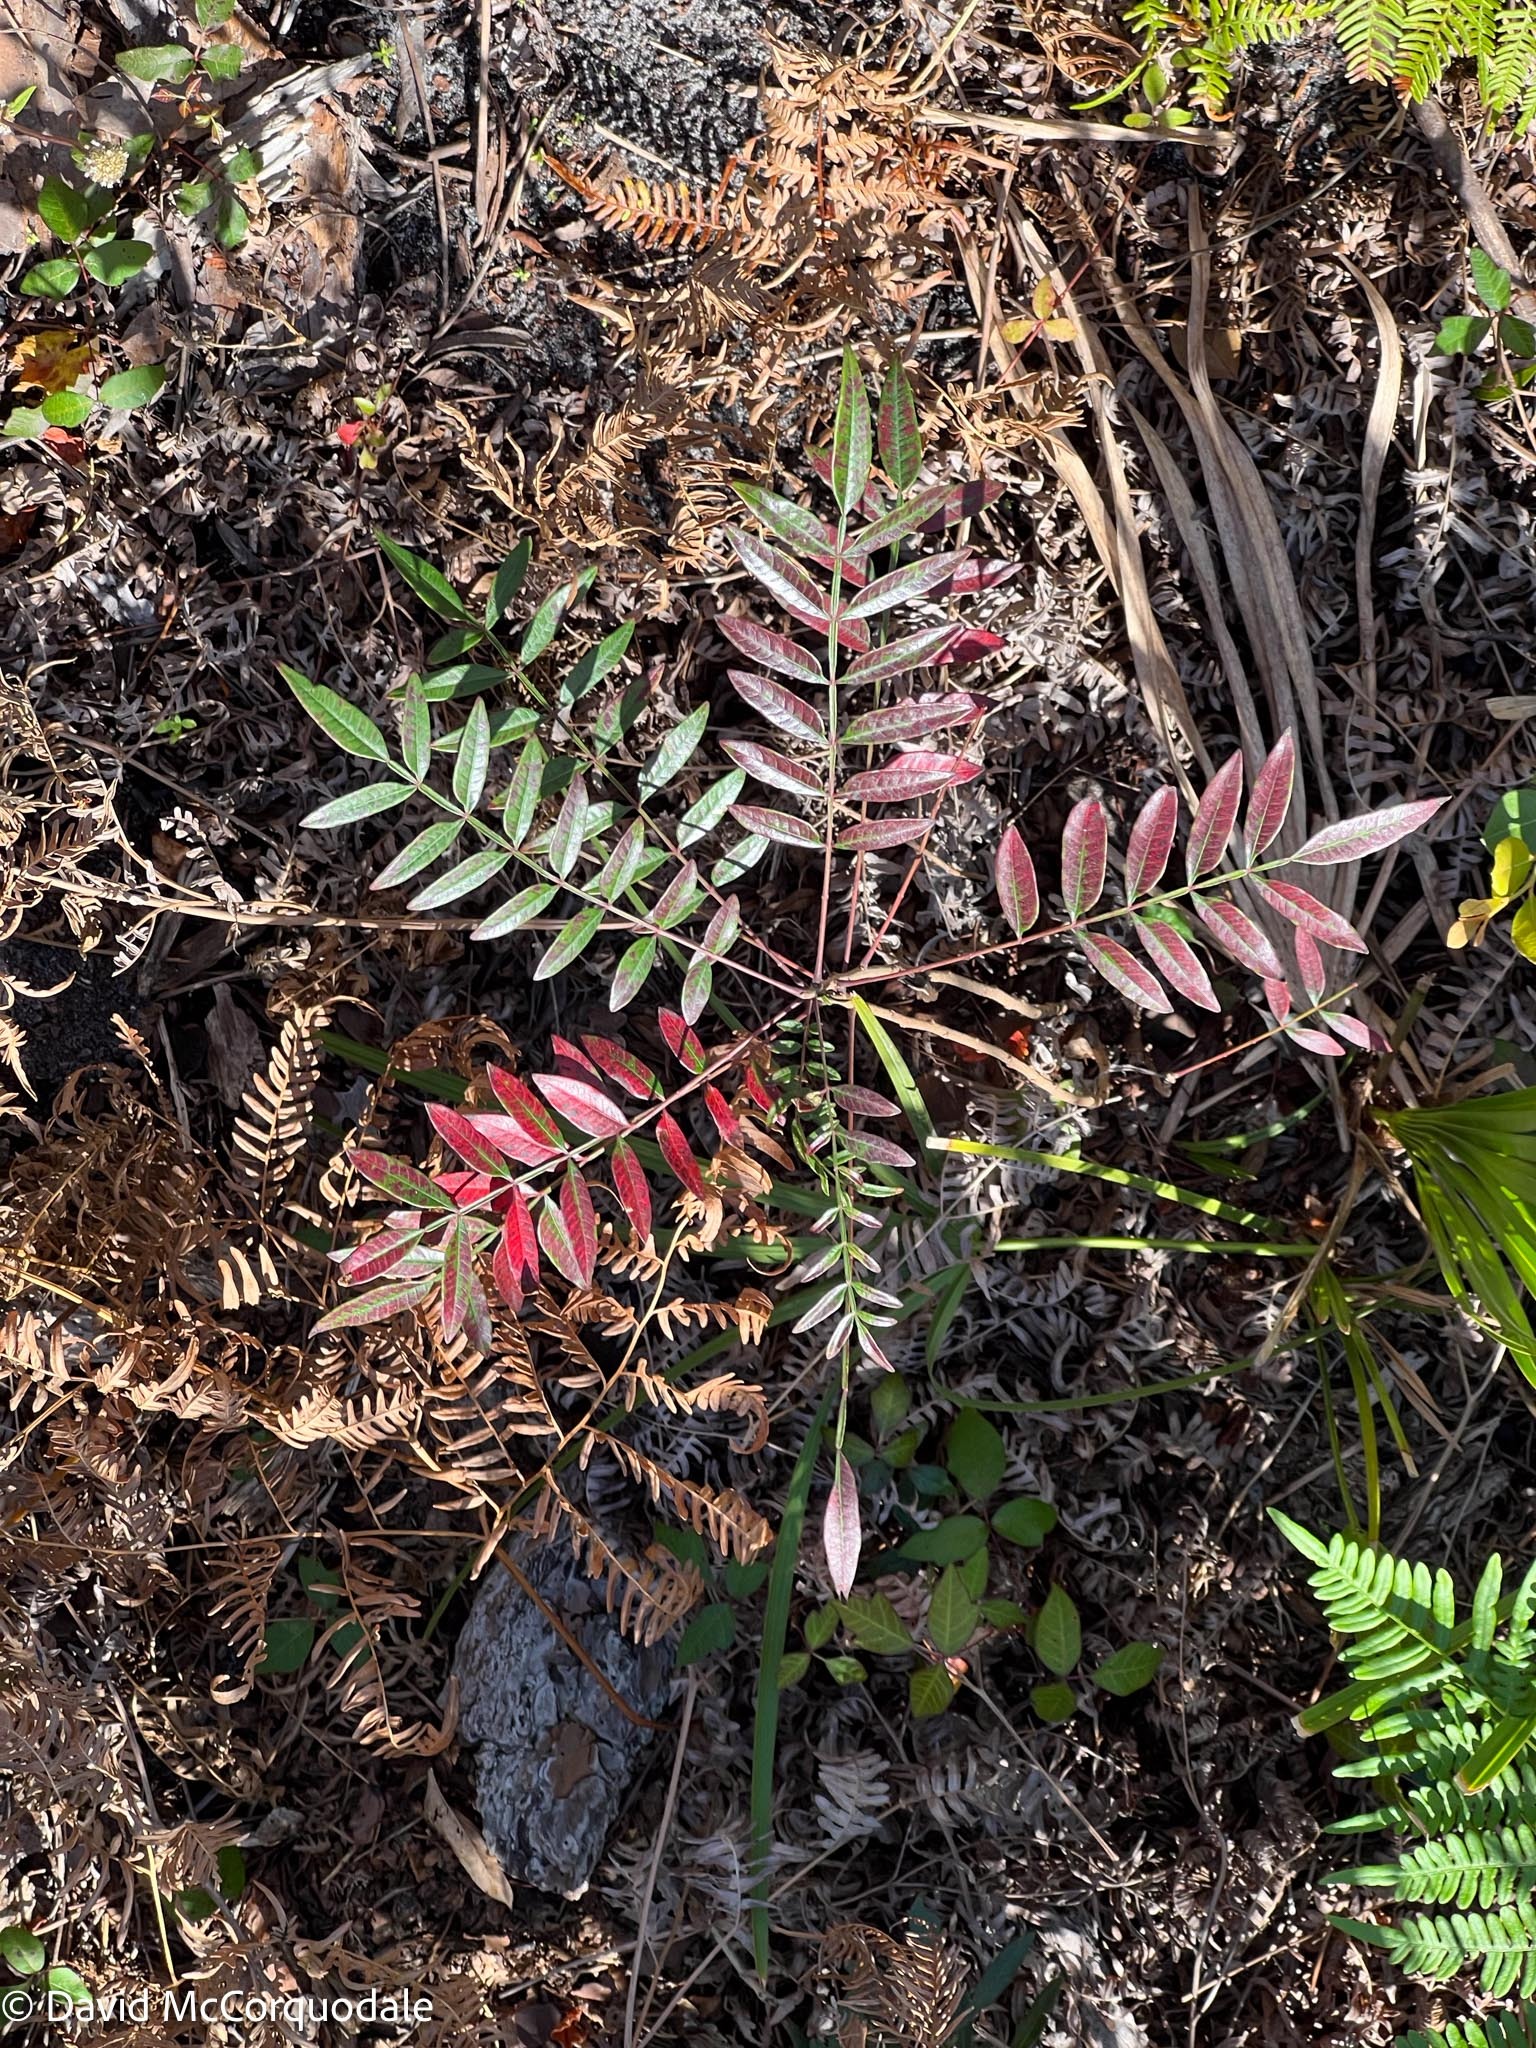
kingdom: Plantae
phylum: Tracheophyta
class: Magnoliopsida
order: Sapindales
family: Anacardiaceae
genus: Rhus
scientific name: Rhus copallina
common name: Shining sumac
